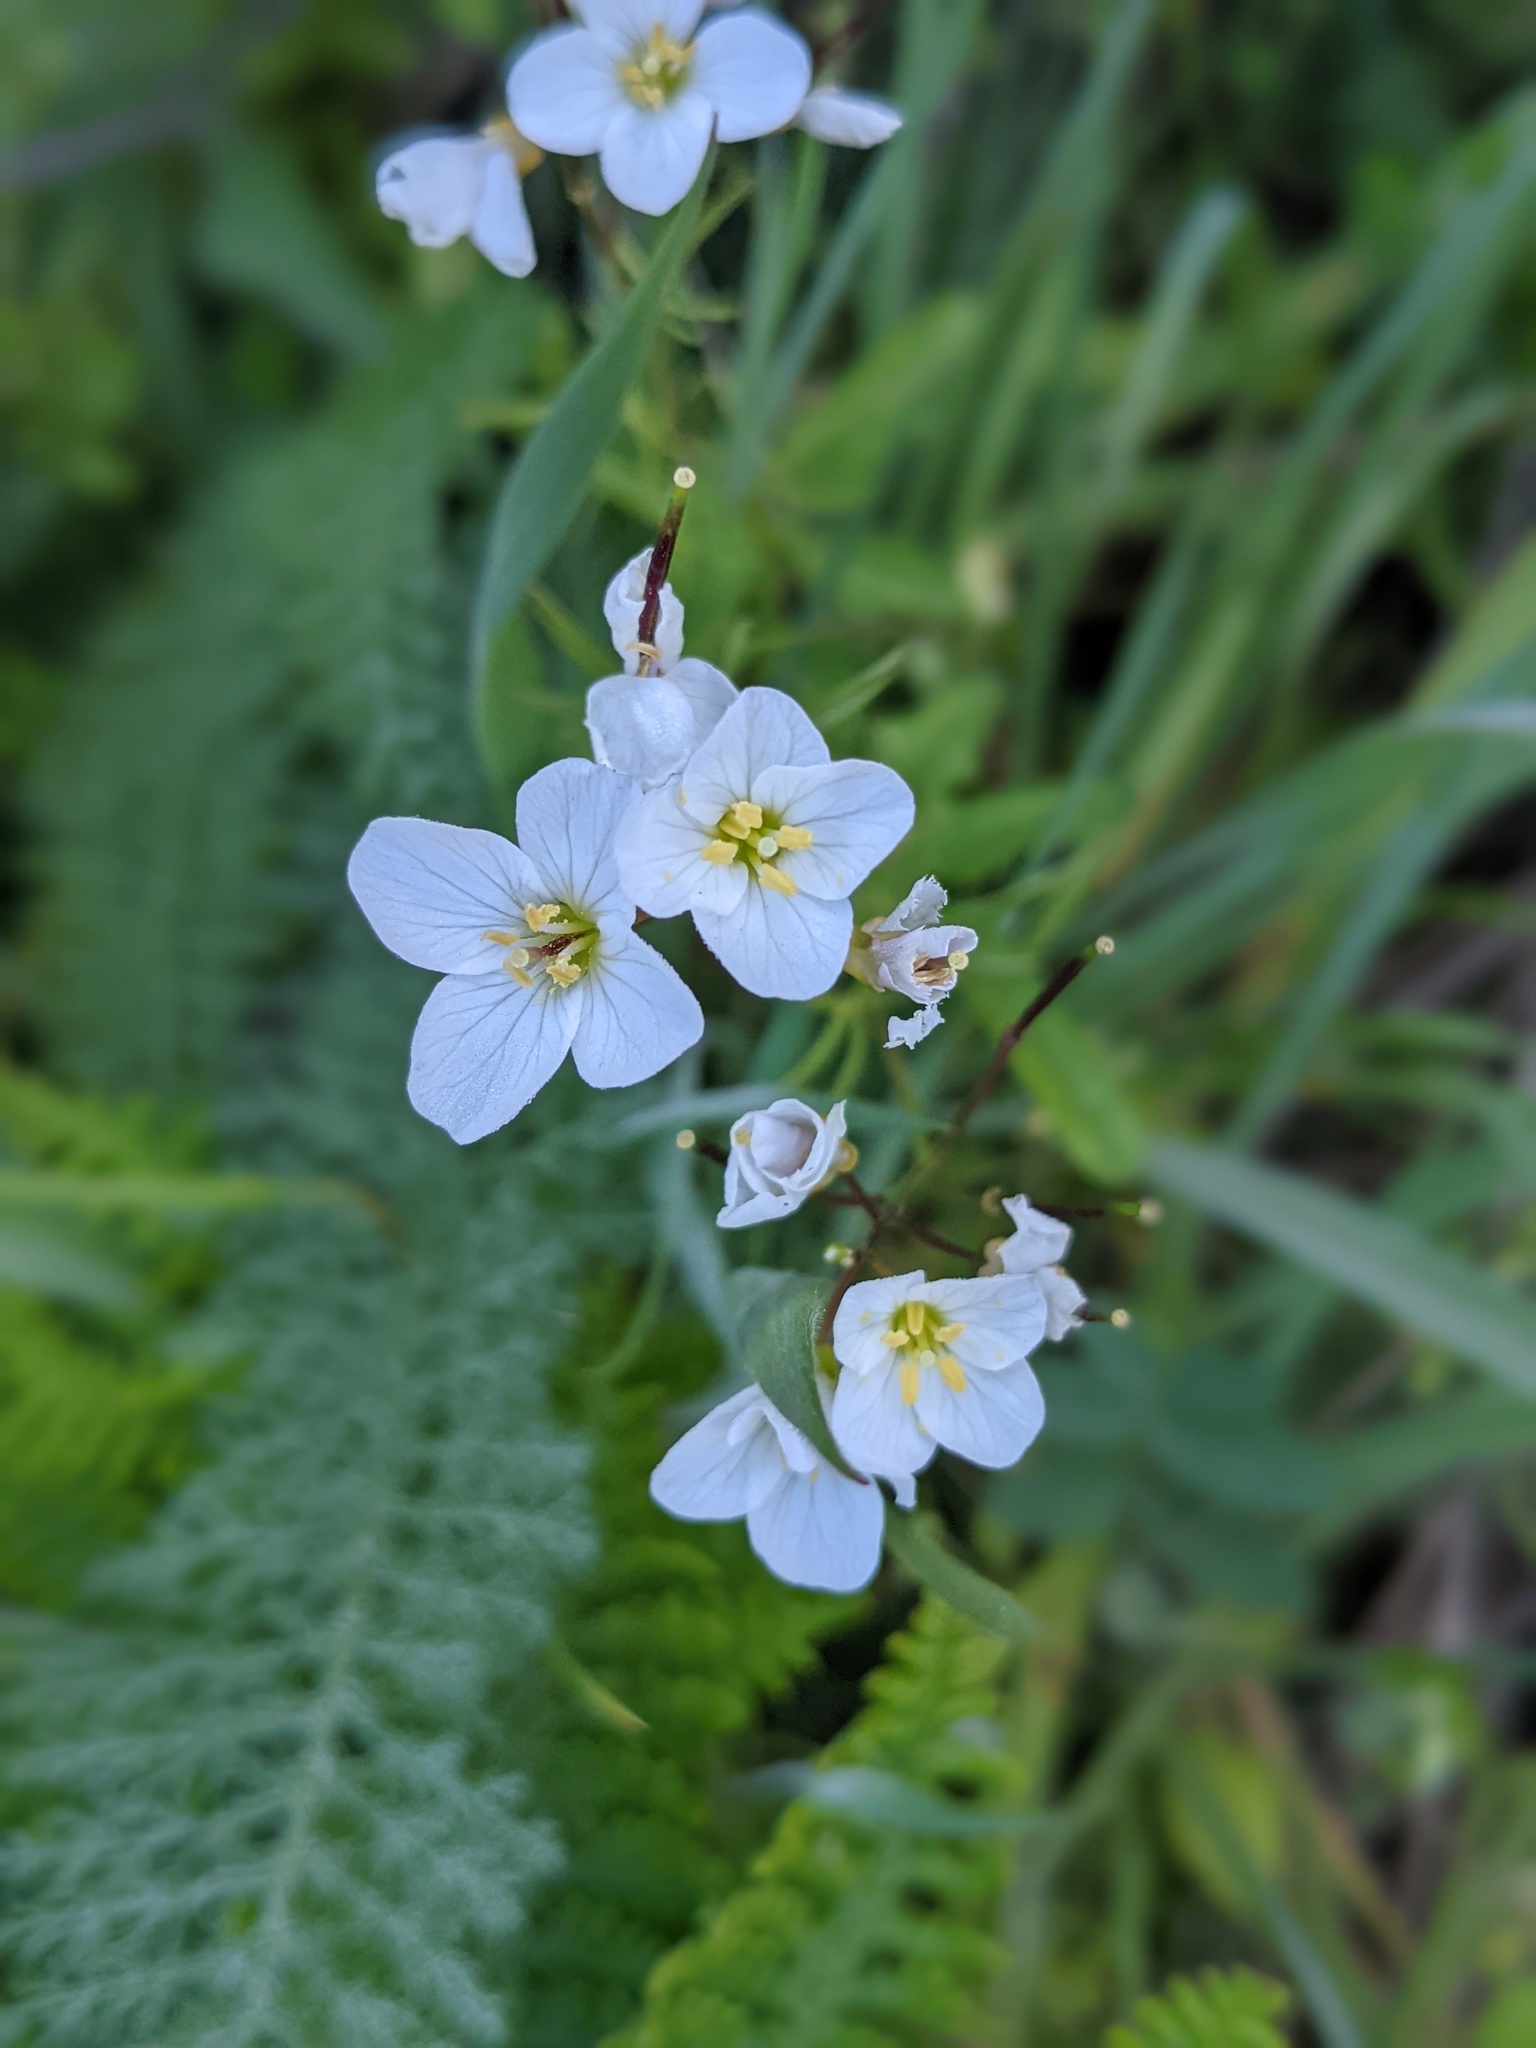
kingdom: Plantae
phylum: Tracheophyta
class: Magnoliopsida
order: Brassicales
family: Brassicaceae
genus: Cardamine
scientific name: Cardamine californica
